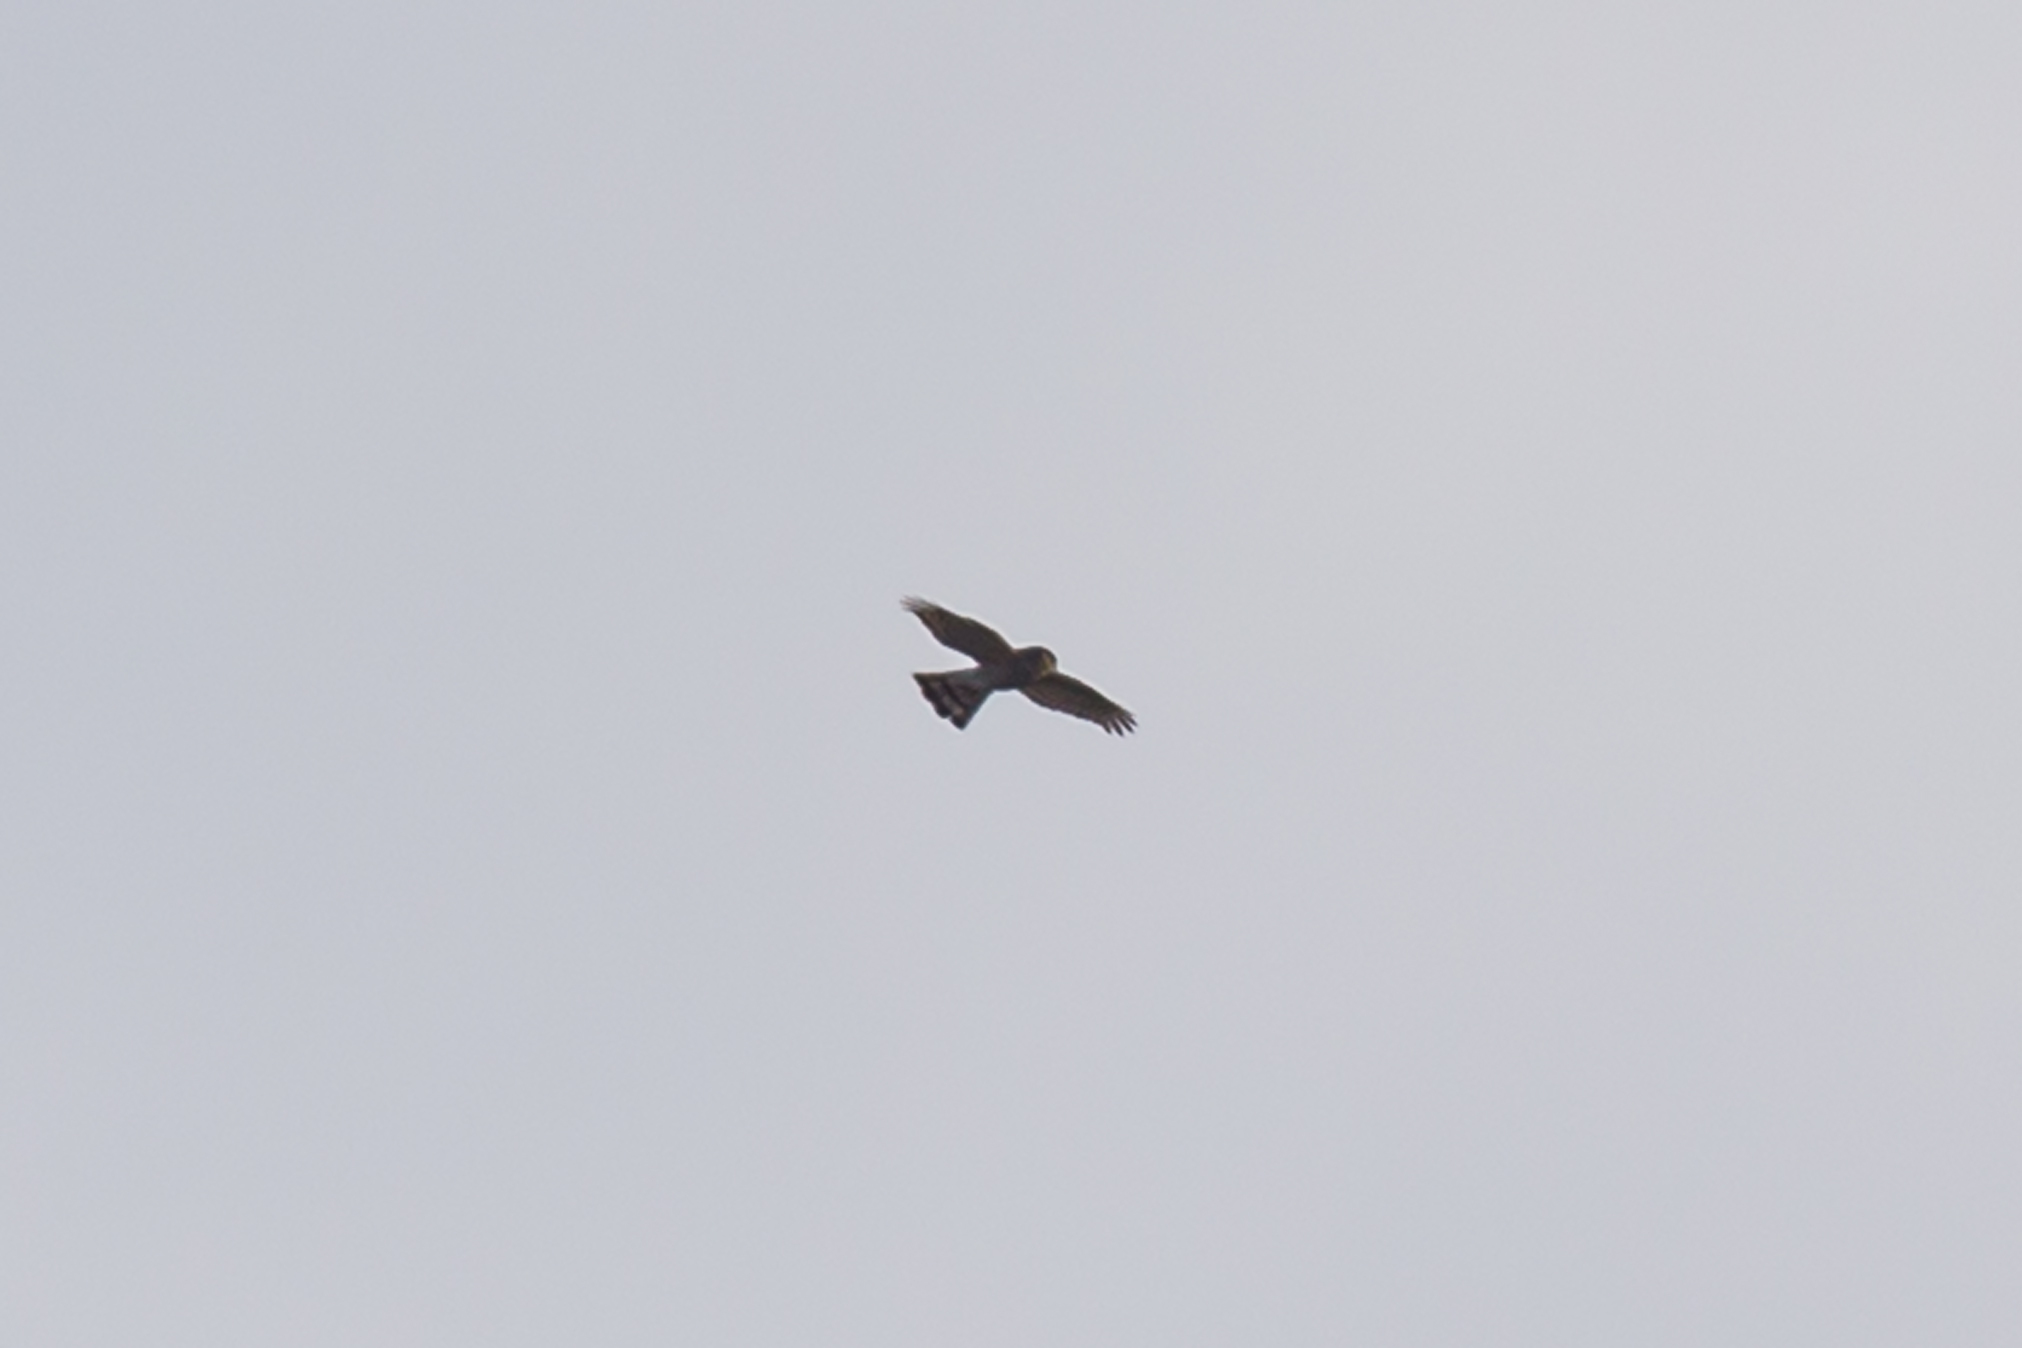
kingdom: Animalia
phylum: Chordata
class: Aves
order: Accipitriformes
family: Accipitridae
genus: Accipiter
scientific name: Accipiter striatus
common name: Sharp-shinned hawk
